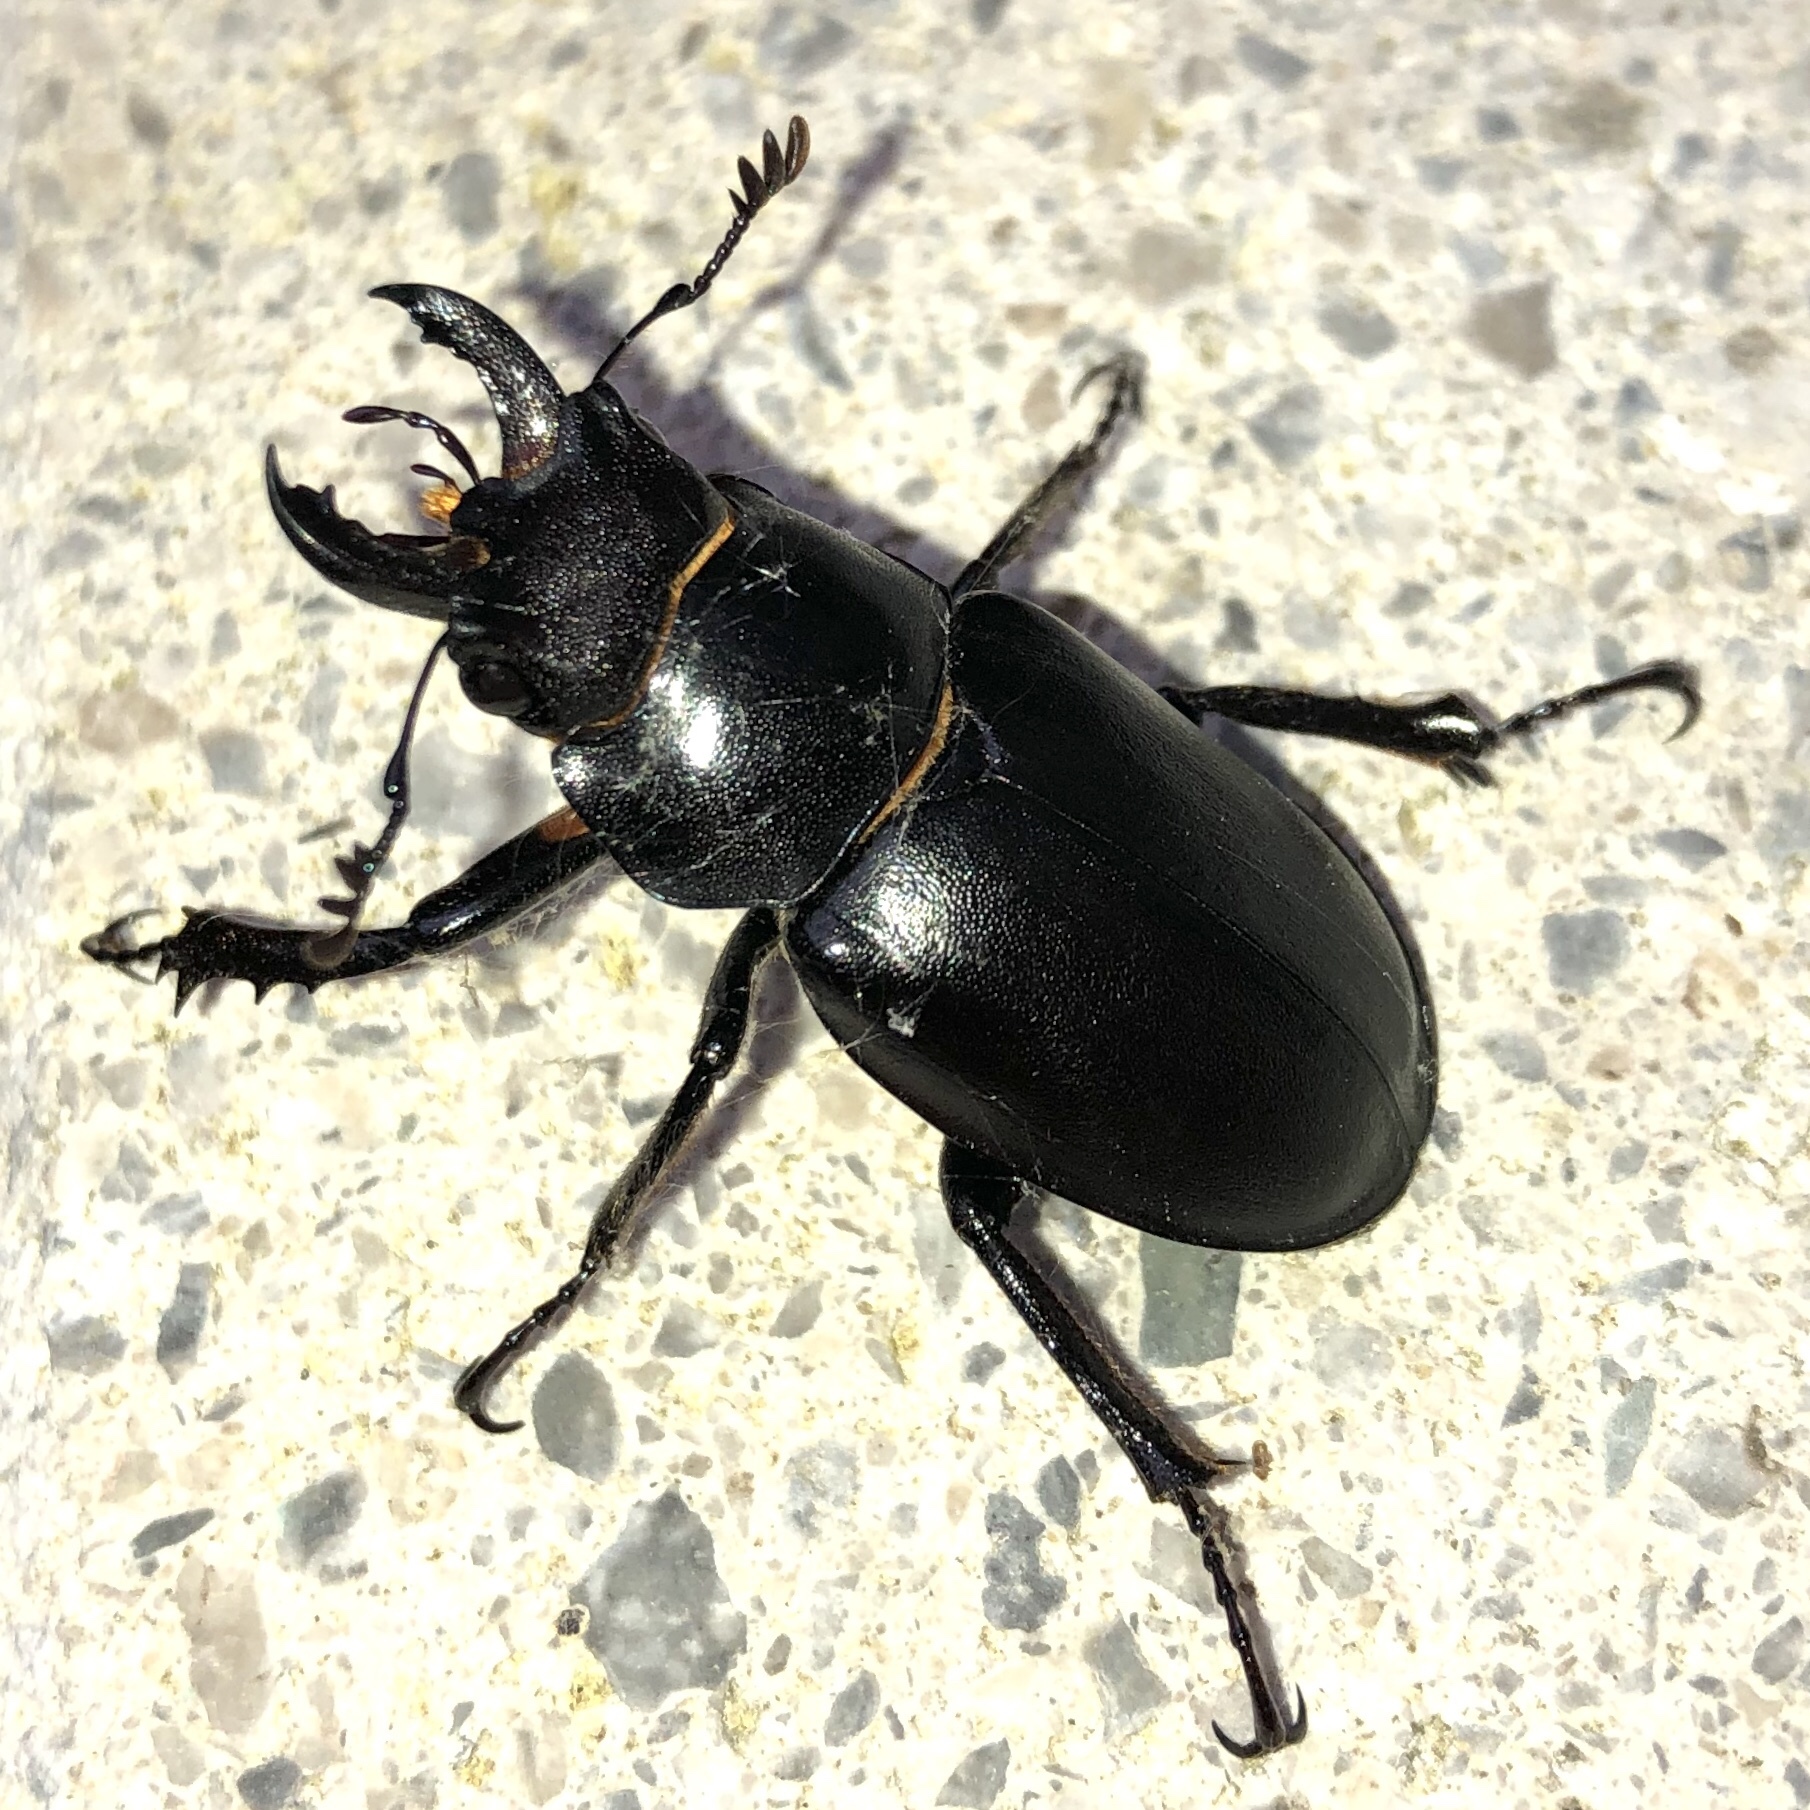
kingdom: Animalia
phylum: Arthropoda
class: Insecta
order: Coleoptera
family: Lucanidae
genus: Lucanus
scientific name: Lucanus placidus
